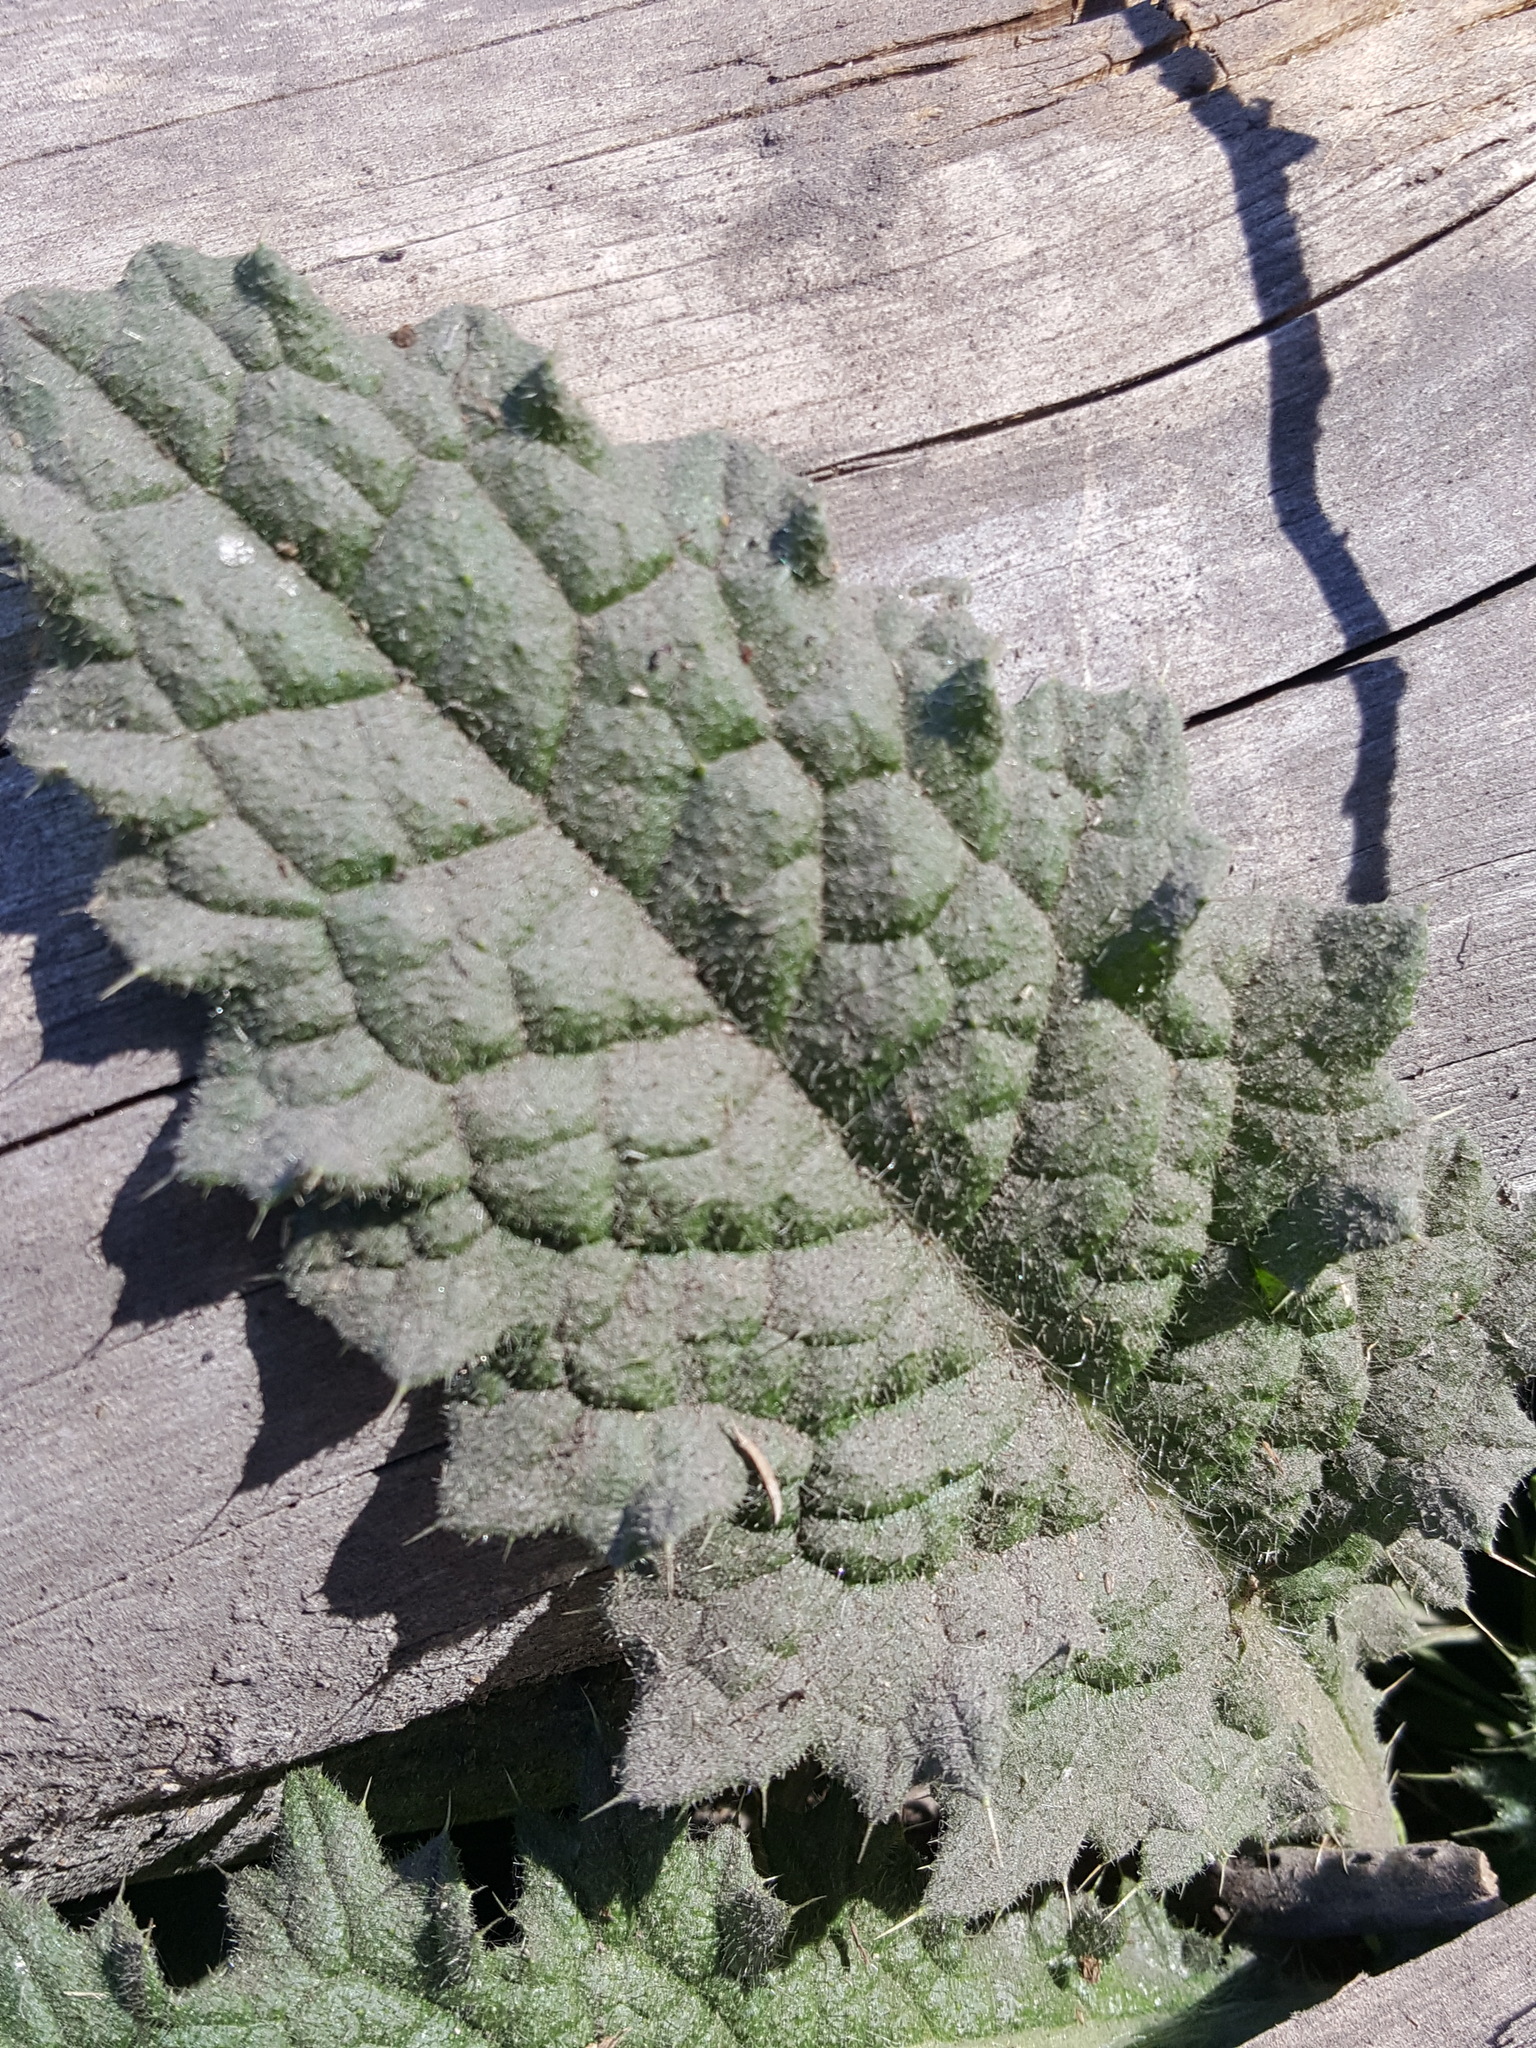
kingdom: Plantae
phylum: Tracheophyta
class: Magnoliopsida
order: Asterales
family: Asteraceae
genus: Cirsium
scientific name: Cirsium vulgare
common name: Bull thistle
